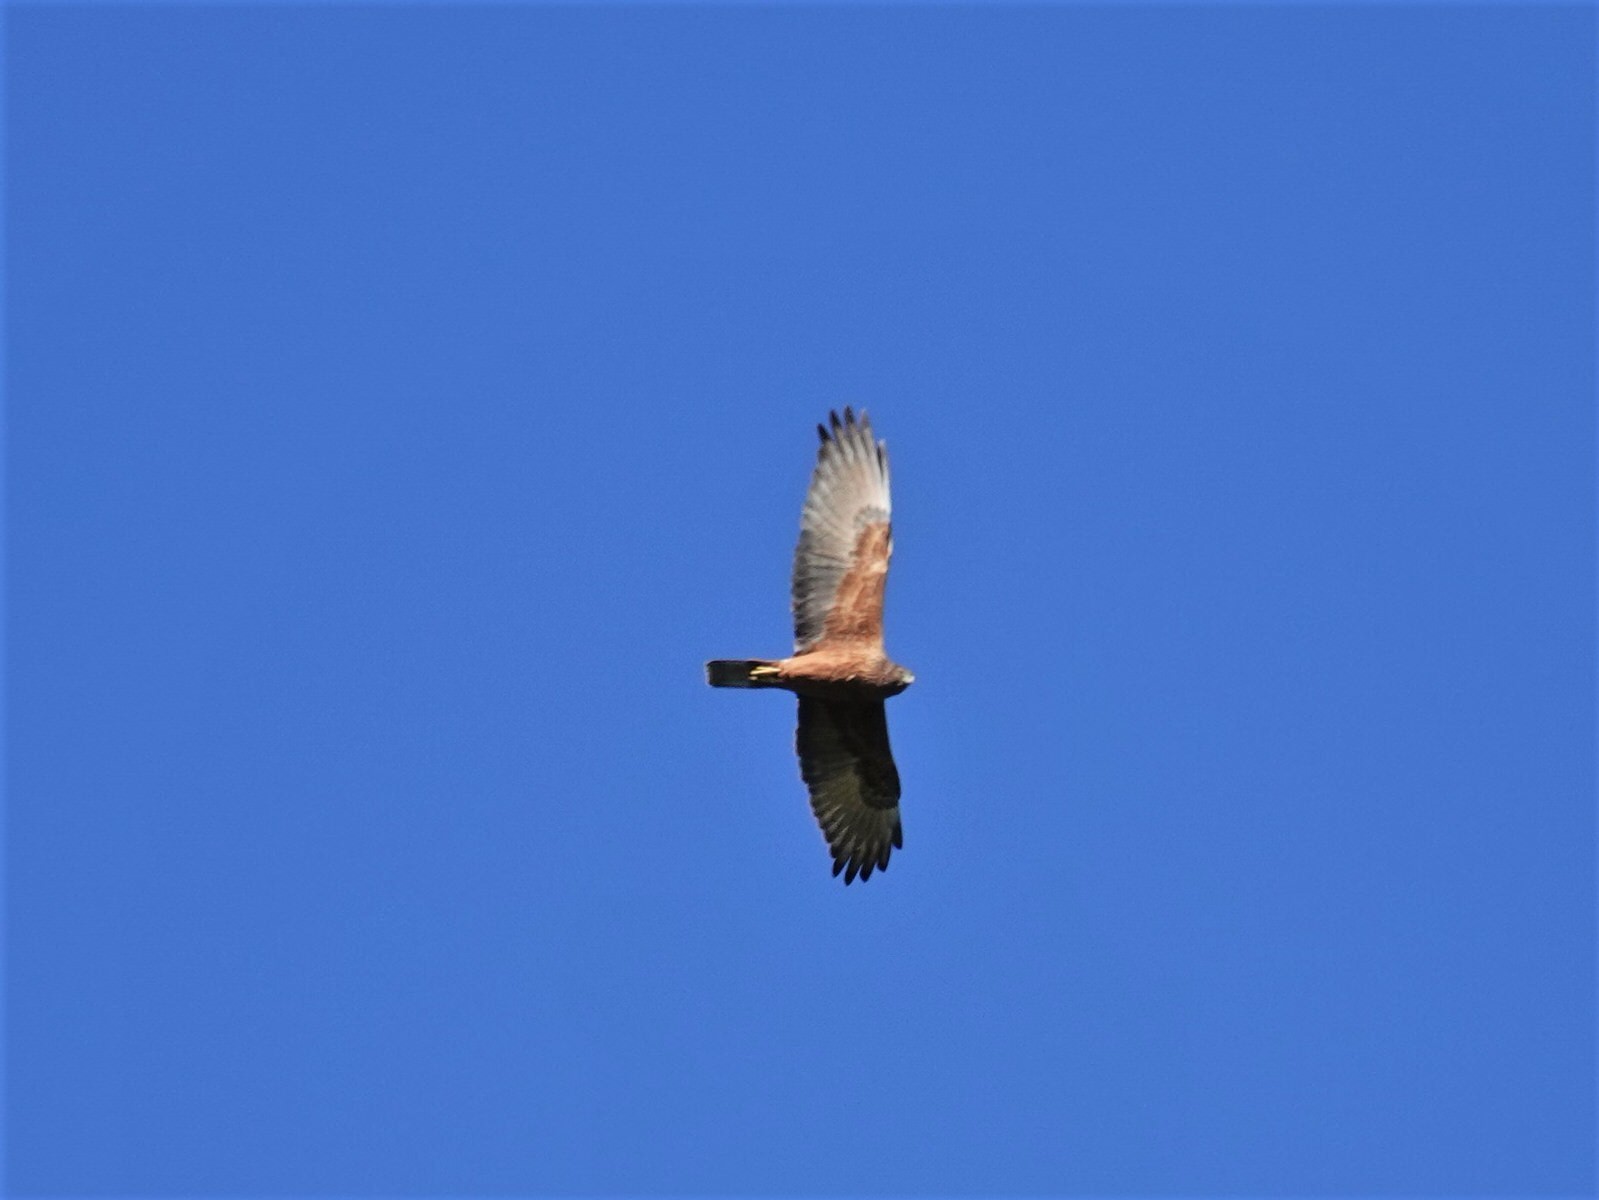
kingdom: Animalia
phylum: Chordata
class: Aves
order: Accipitriformes
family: Accipitridae
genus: Circus
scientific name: Circus approximans
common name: Swamp harrier
